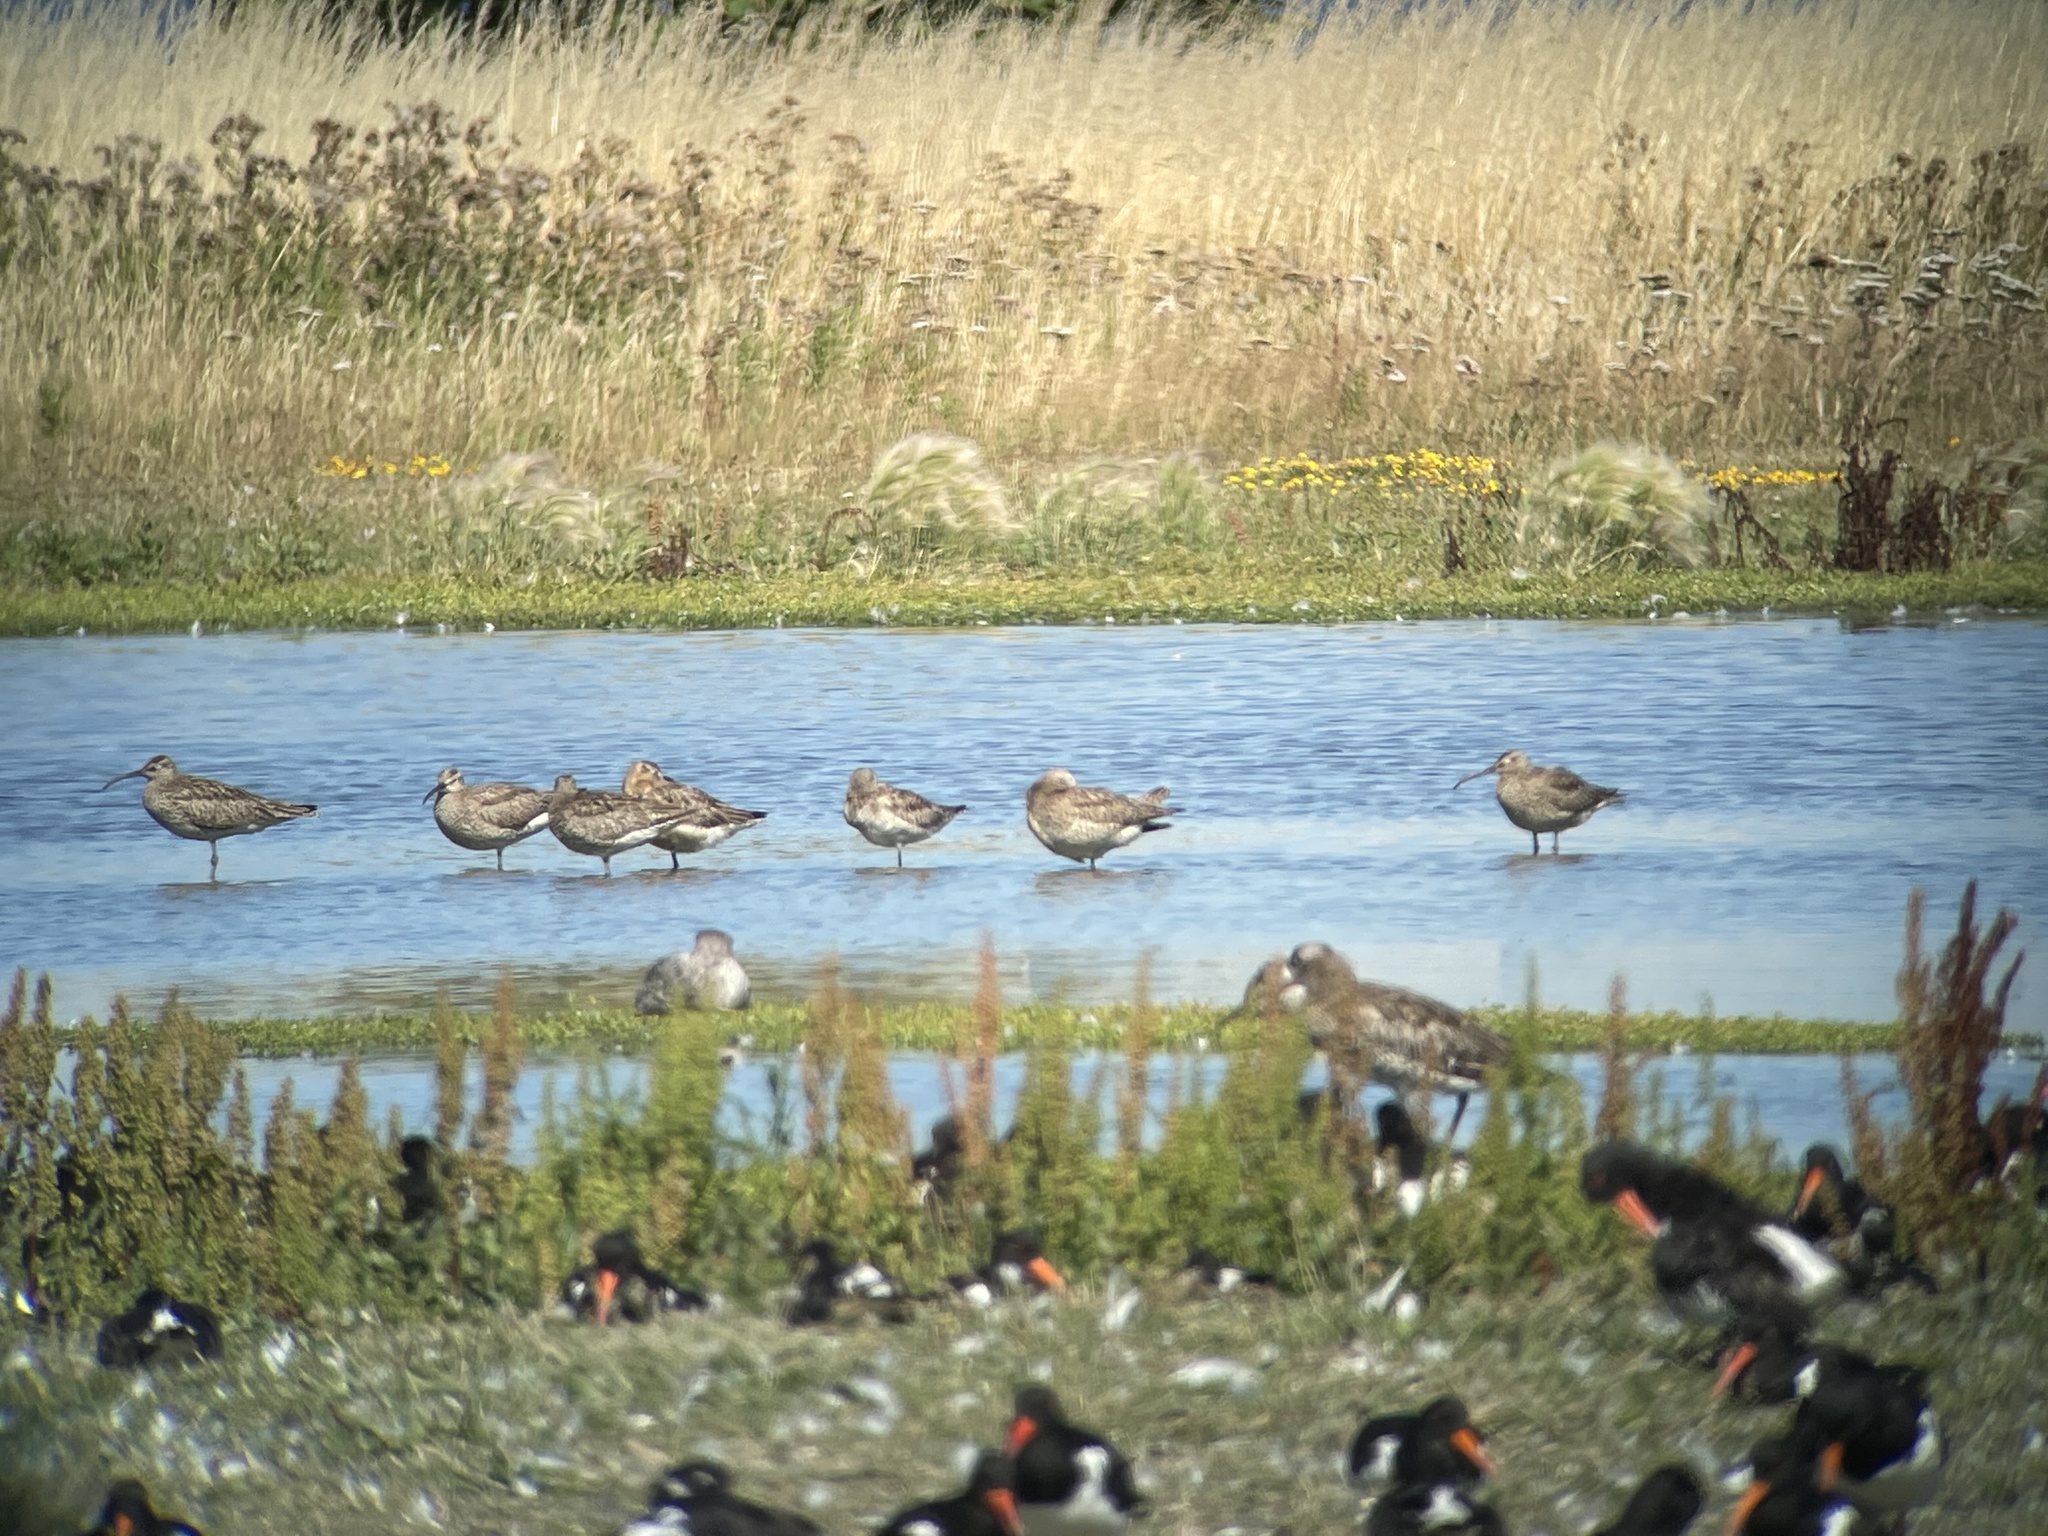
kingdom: Animalia
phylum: Chordata
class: Aves
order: Charadriiformes
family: Scolopacidae
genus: Numenius
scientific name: Numenius phaeopus
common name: Whimbrel
